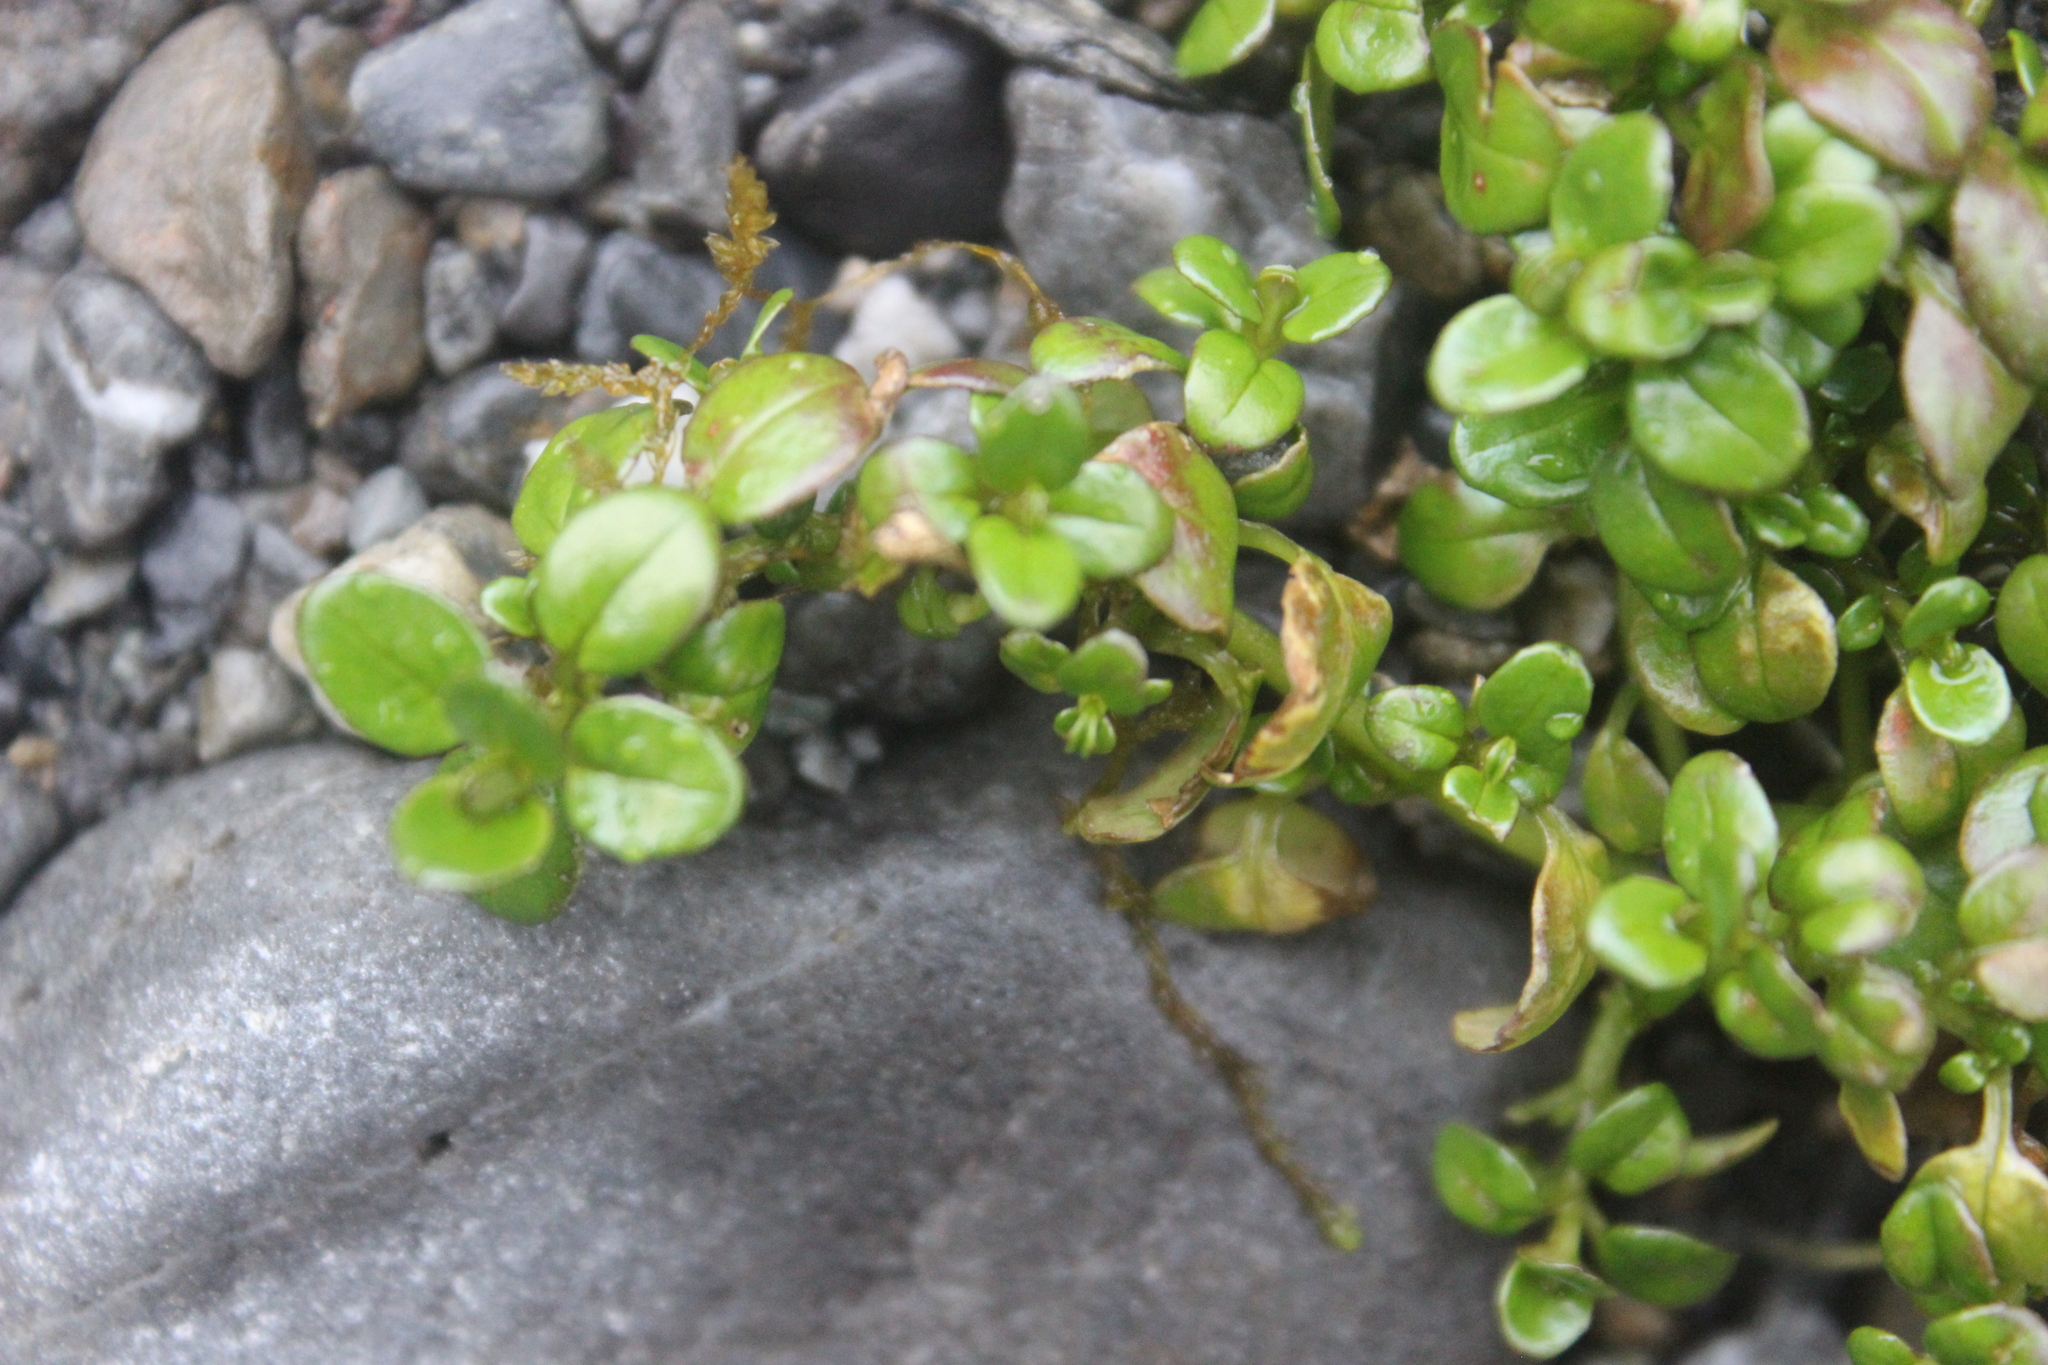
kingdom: Plantae
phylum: Tracheophyta
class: Magnoliopsida
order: Myrtales
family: Onagraceae
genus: Epilobium
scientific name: Epilobium brunnescens
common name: New zealand willowherb
